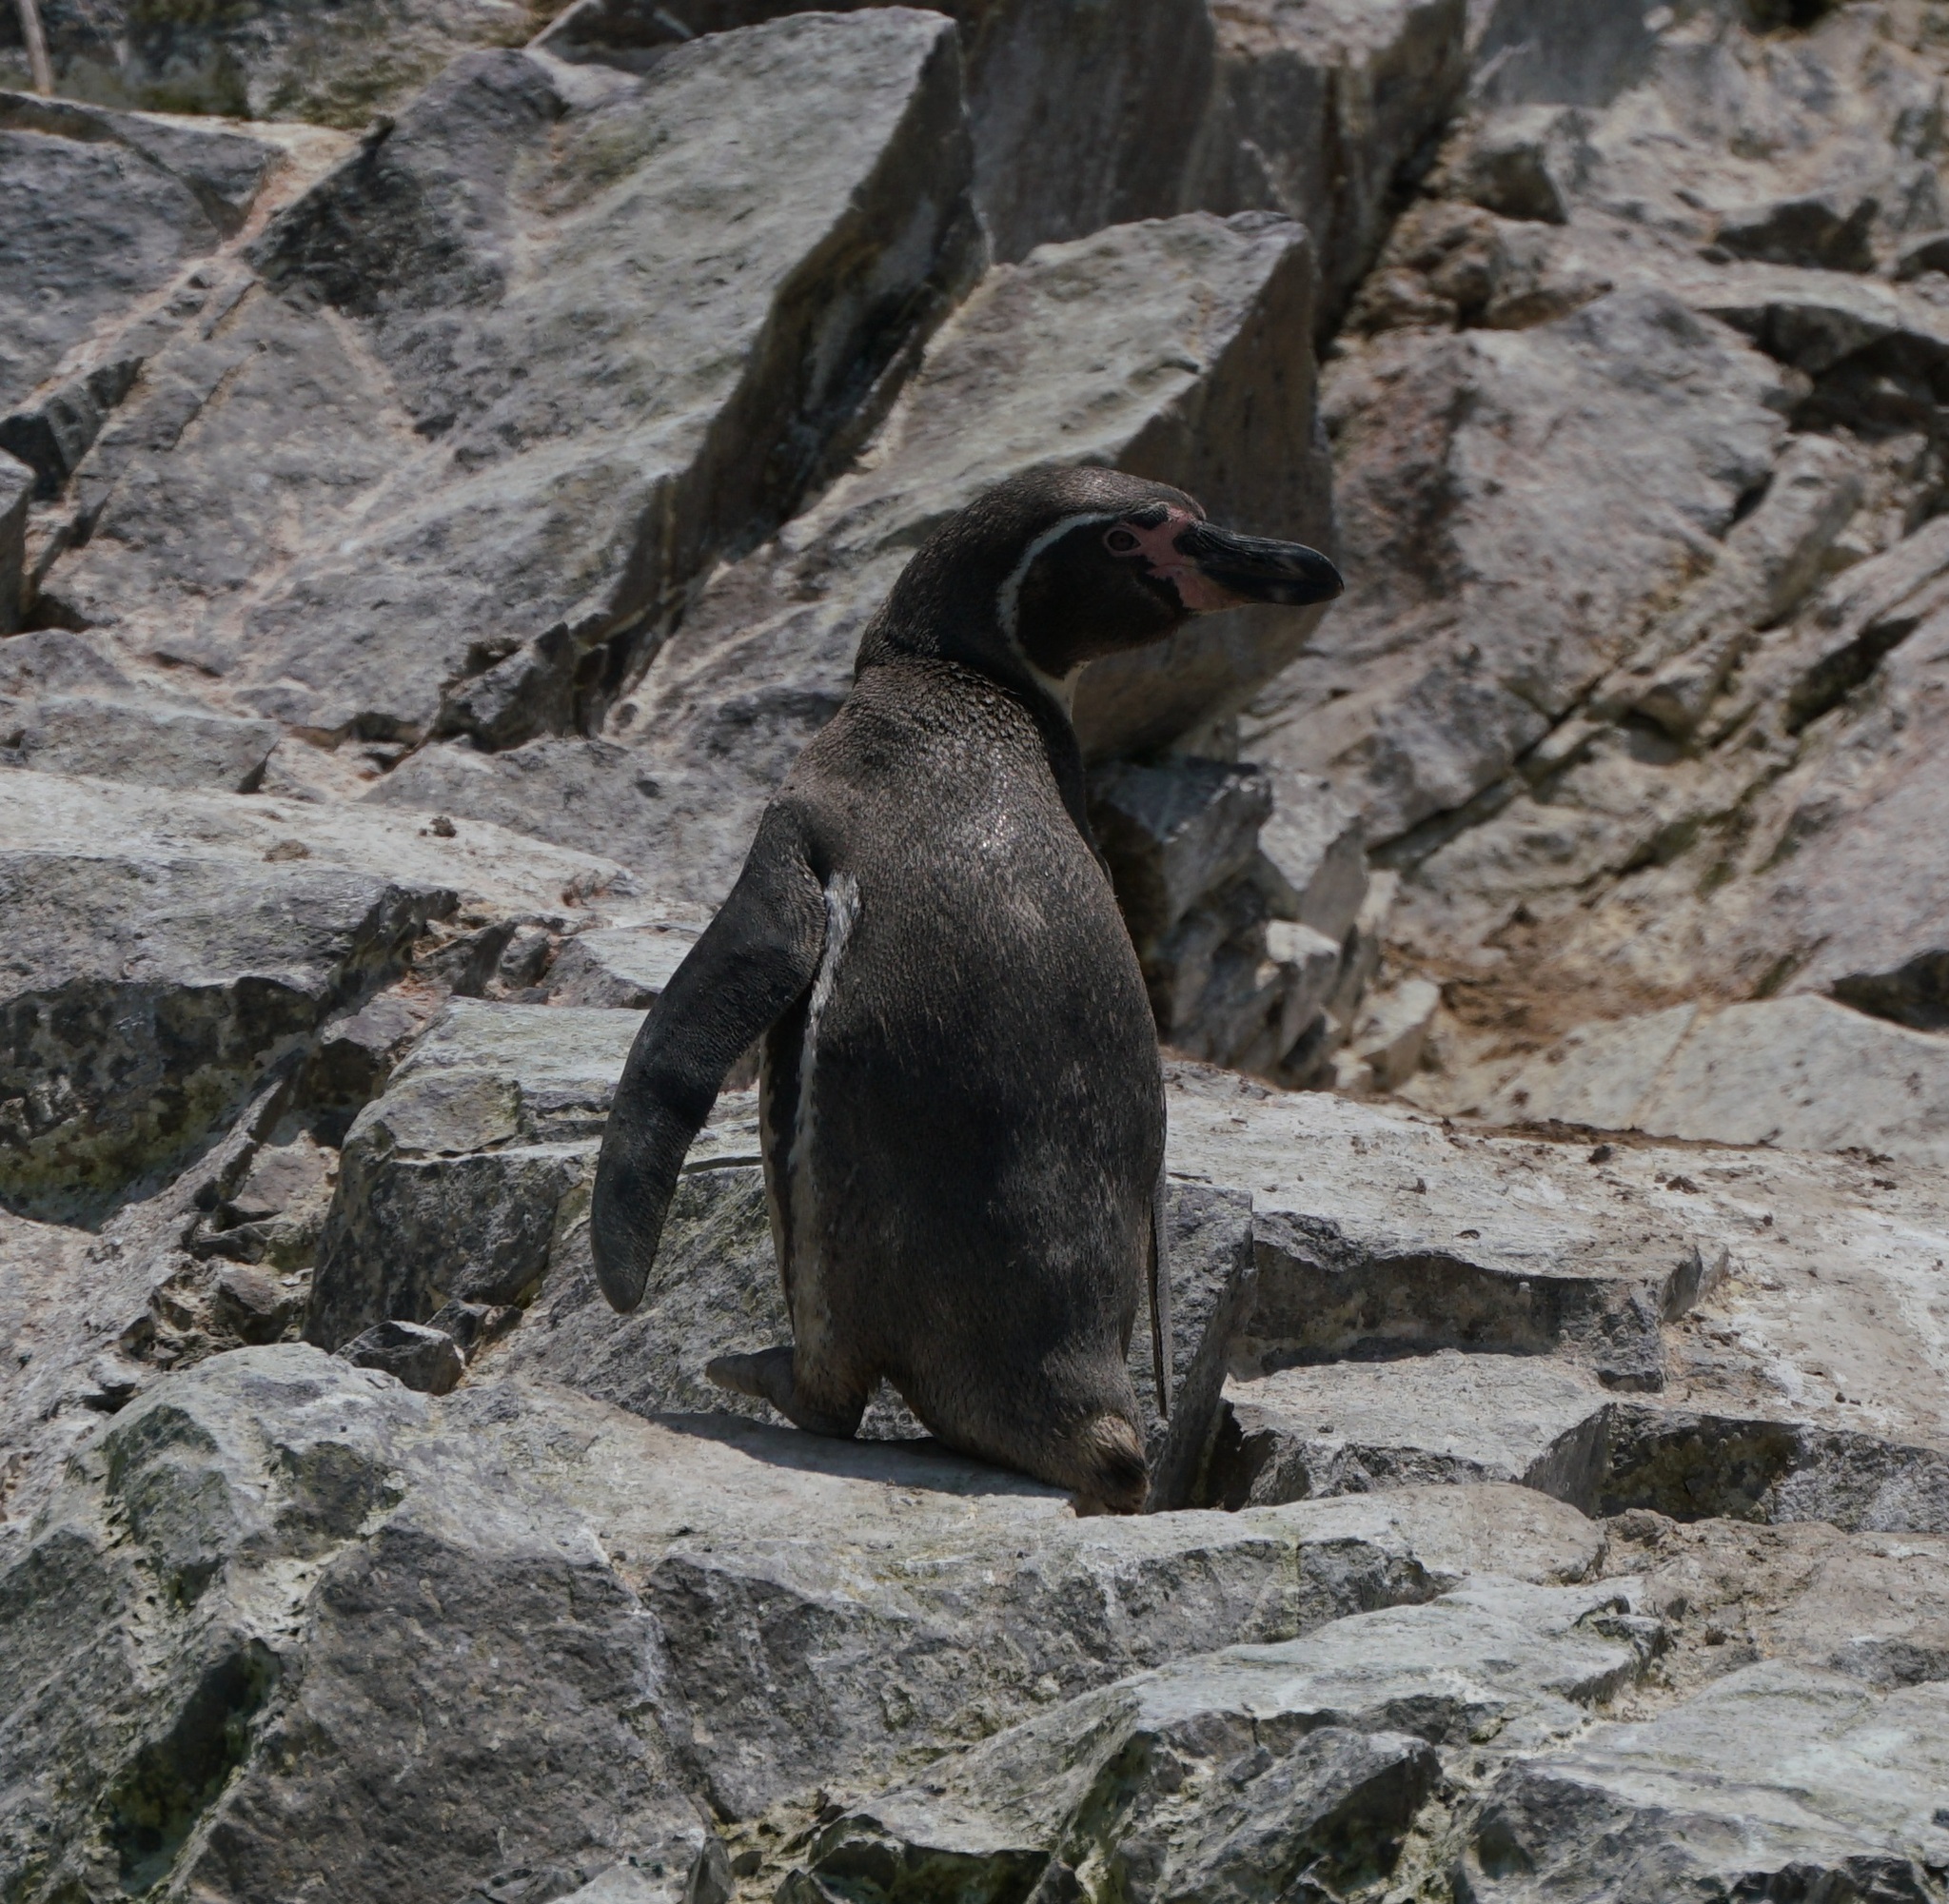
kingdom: Animalia
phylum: Chordata
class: Aves
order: Sphenisciformes
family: Spheniscidae
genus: Spheniscus
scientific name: Spheniscus humboldti
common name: Humboldt penguin
